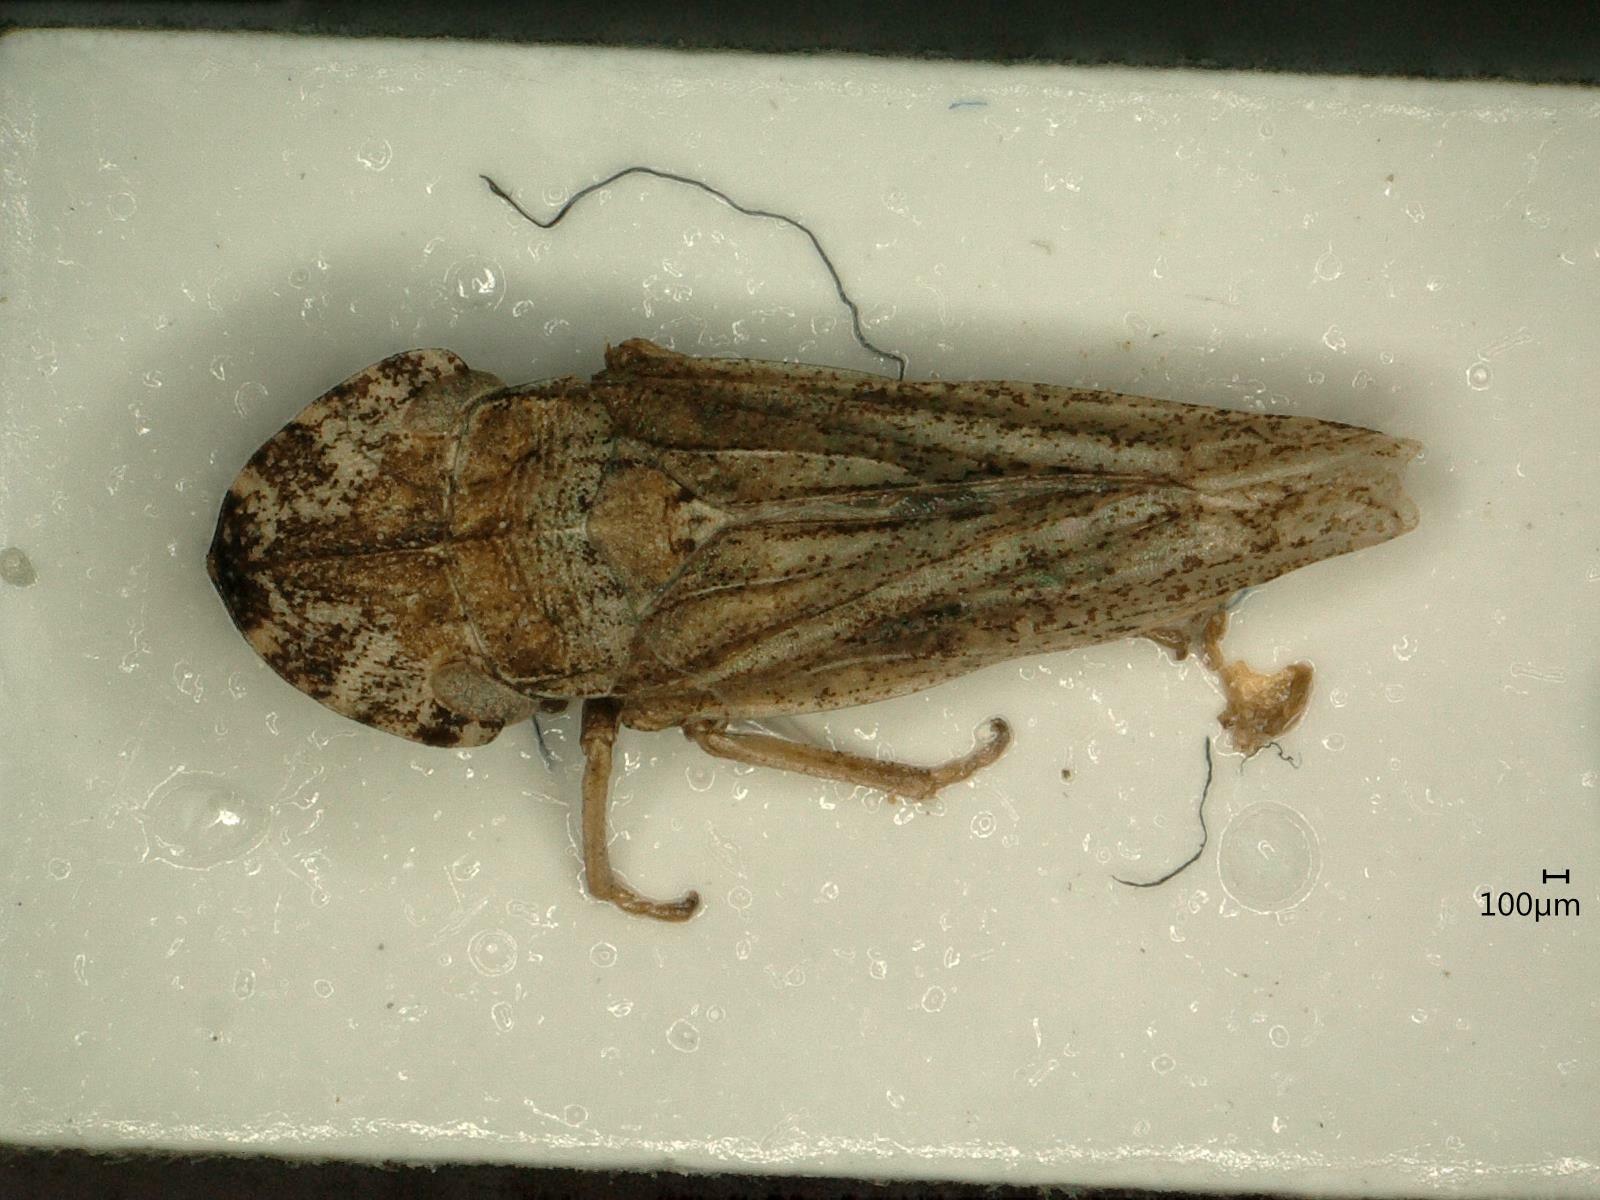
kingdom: Animalia
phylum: Arthropoda
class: Insecta
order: Hemiptera
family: Cicadellidae
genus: Eupelix
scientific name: Eupelix cuspidata
